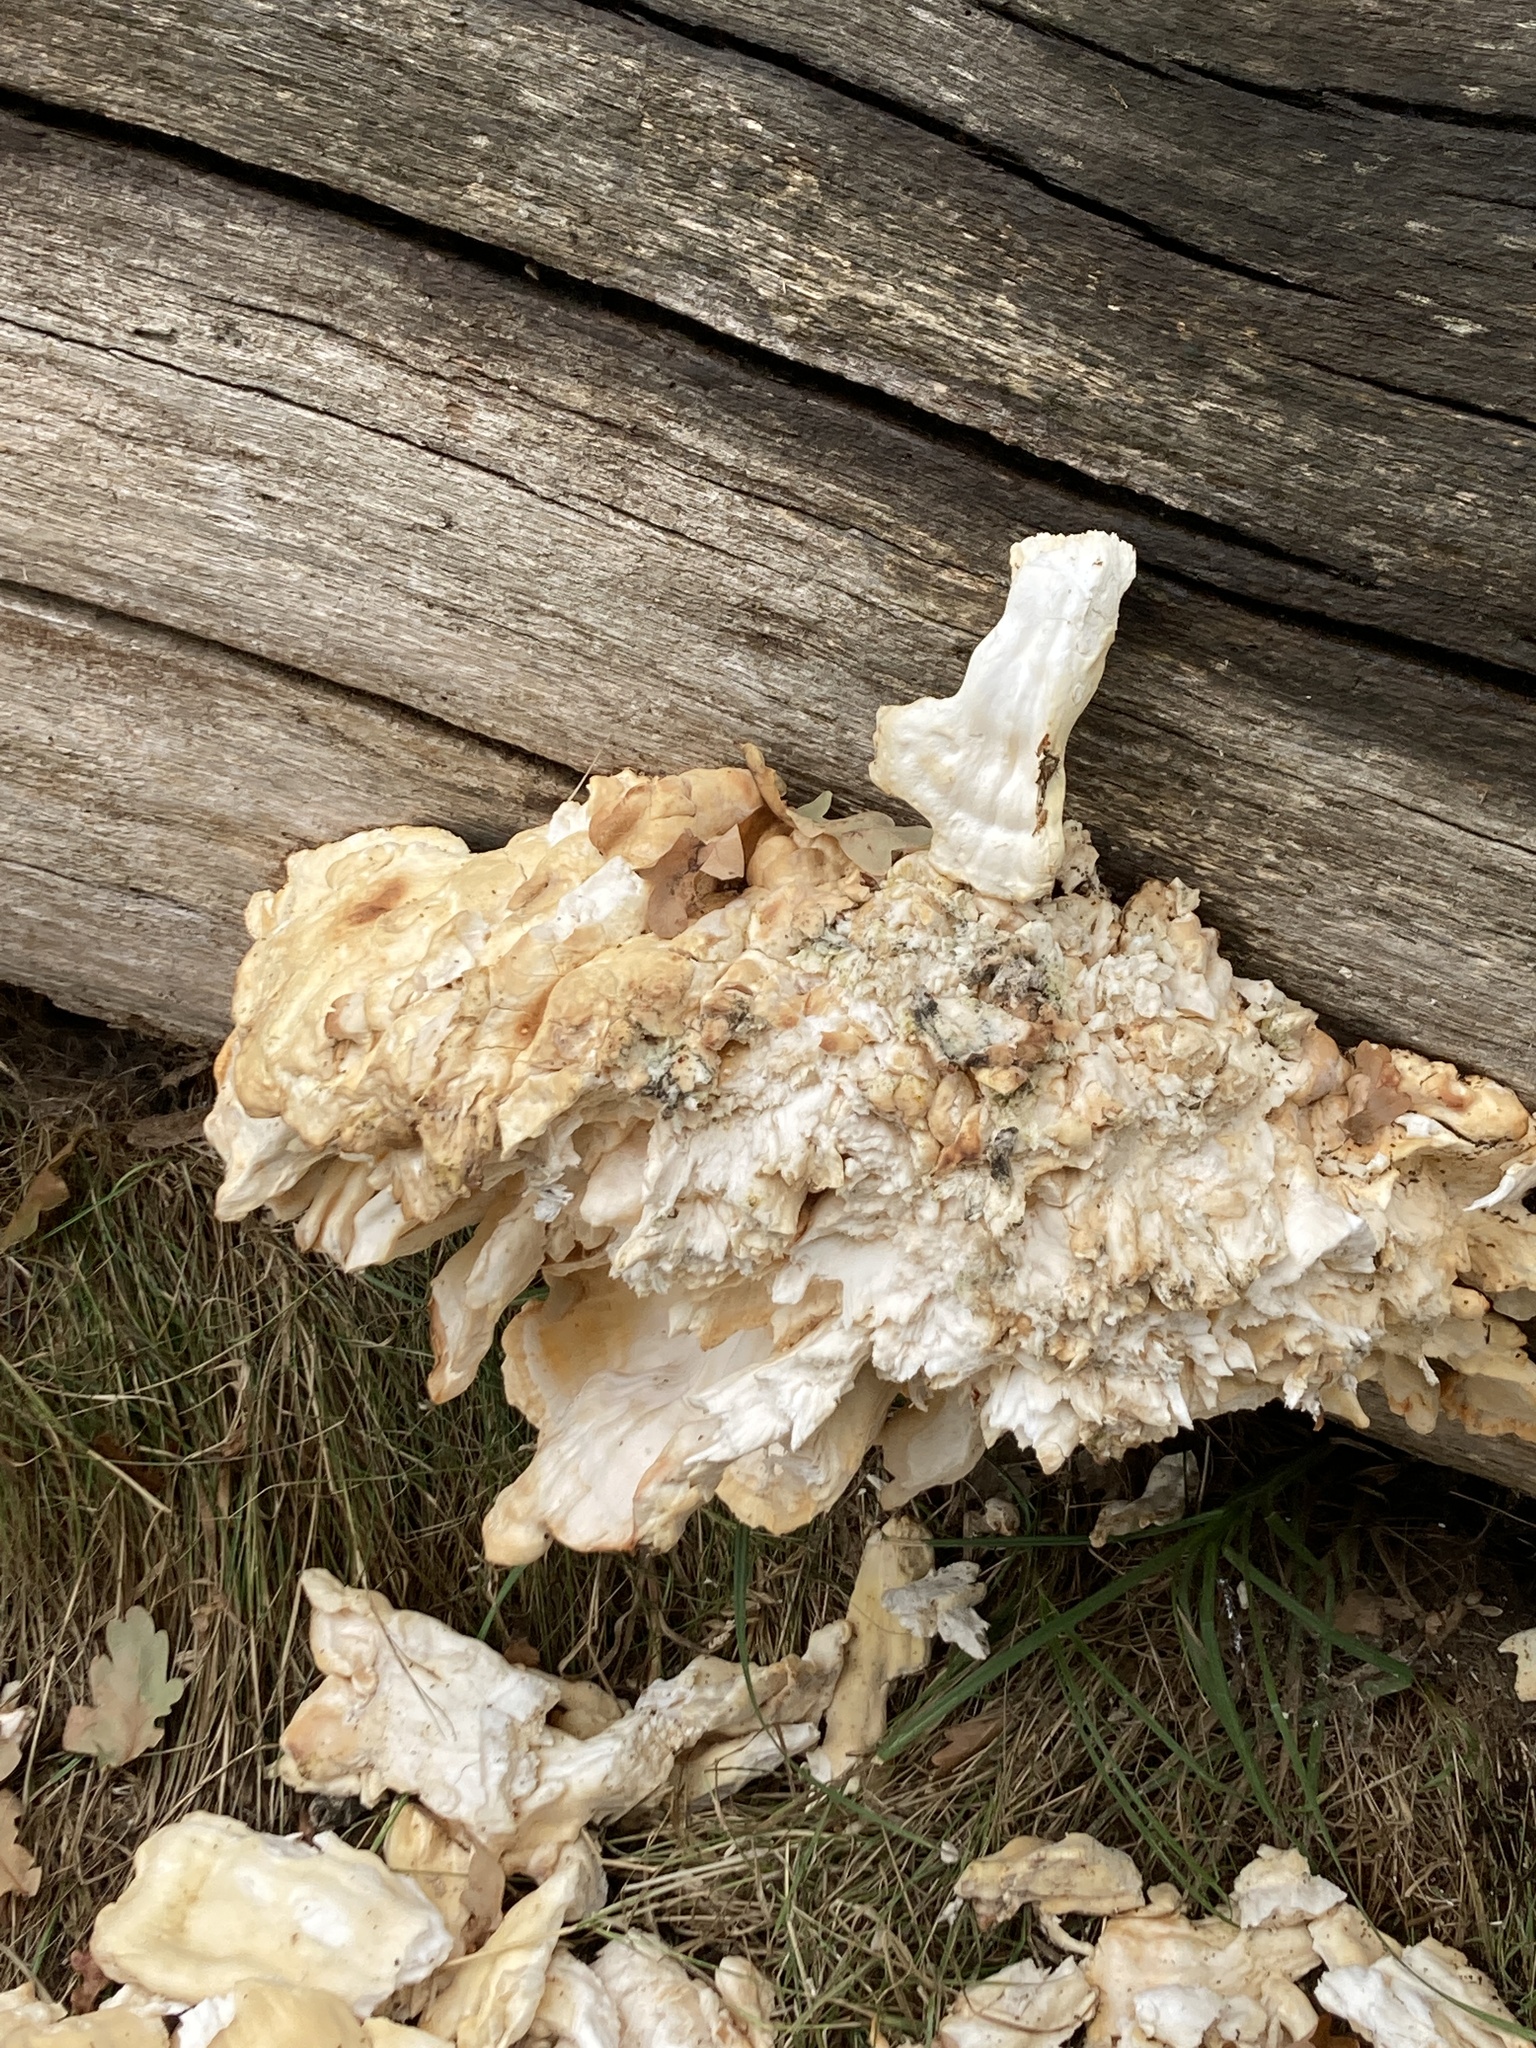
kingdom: Fungi
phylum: Basidiomycota
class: Agaricomycetes
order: Polyporales
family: Laetiporaceae
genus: Laetiporus
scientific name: Laetiporus sulphureus
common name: Chicken of the woods
